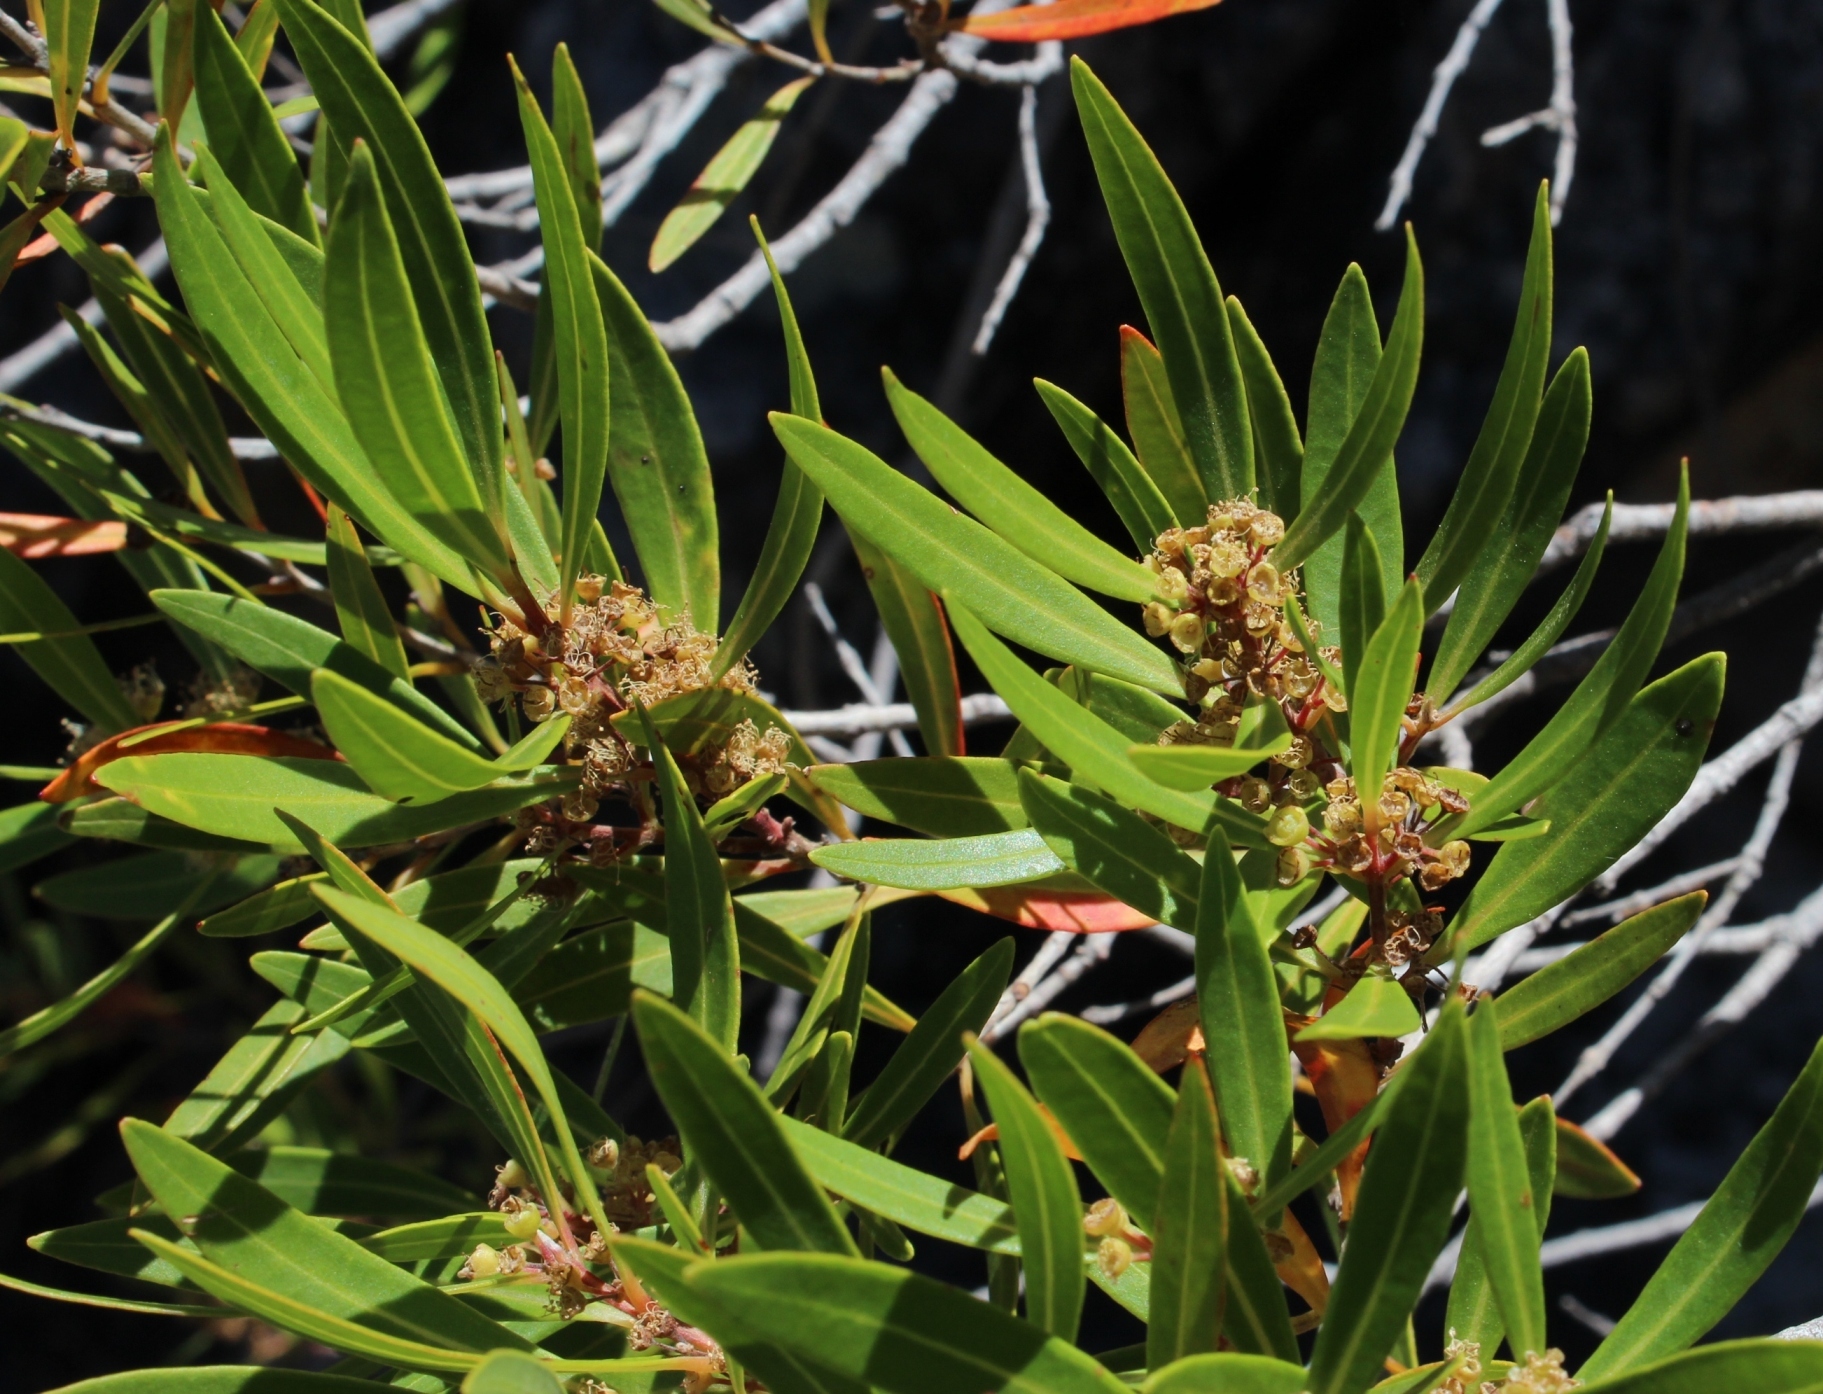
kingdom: Plantae
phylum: Tracheophyta
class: Magnoliopsida
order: Myrtales
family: Myrtaceae
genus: Callistemon
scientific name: Callistemon lanceolatus
